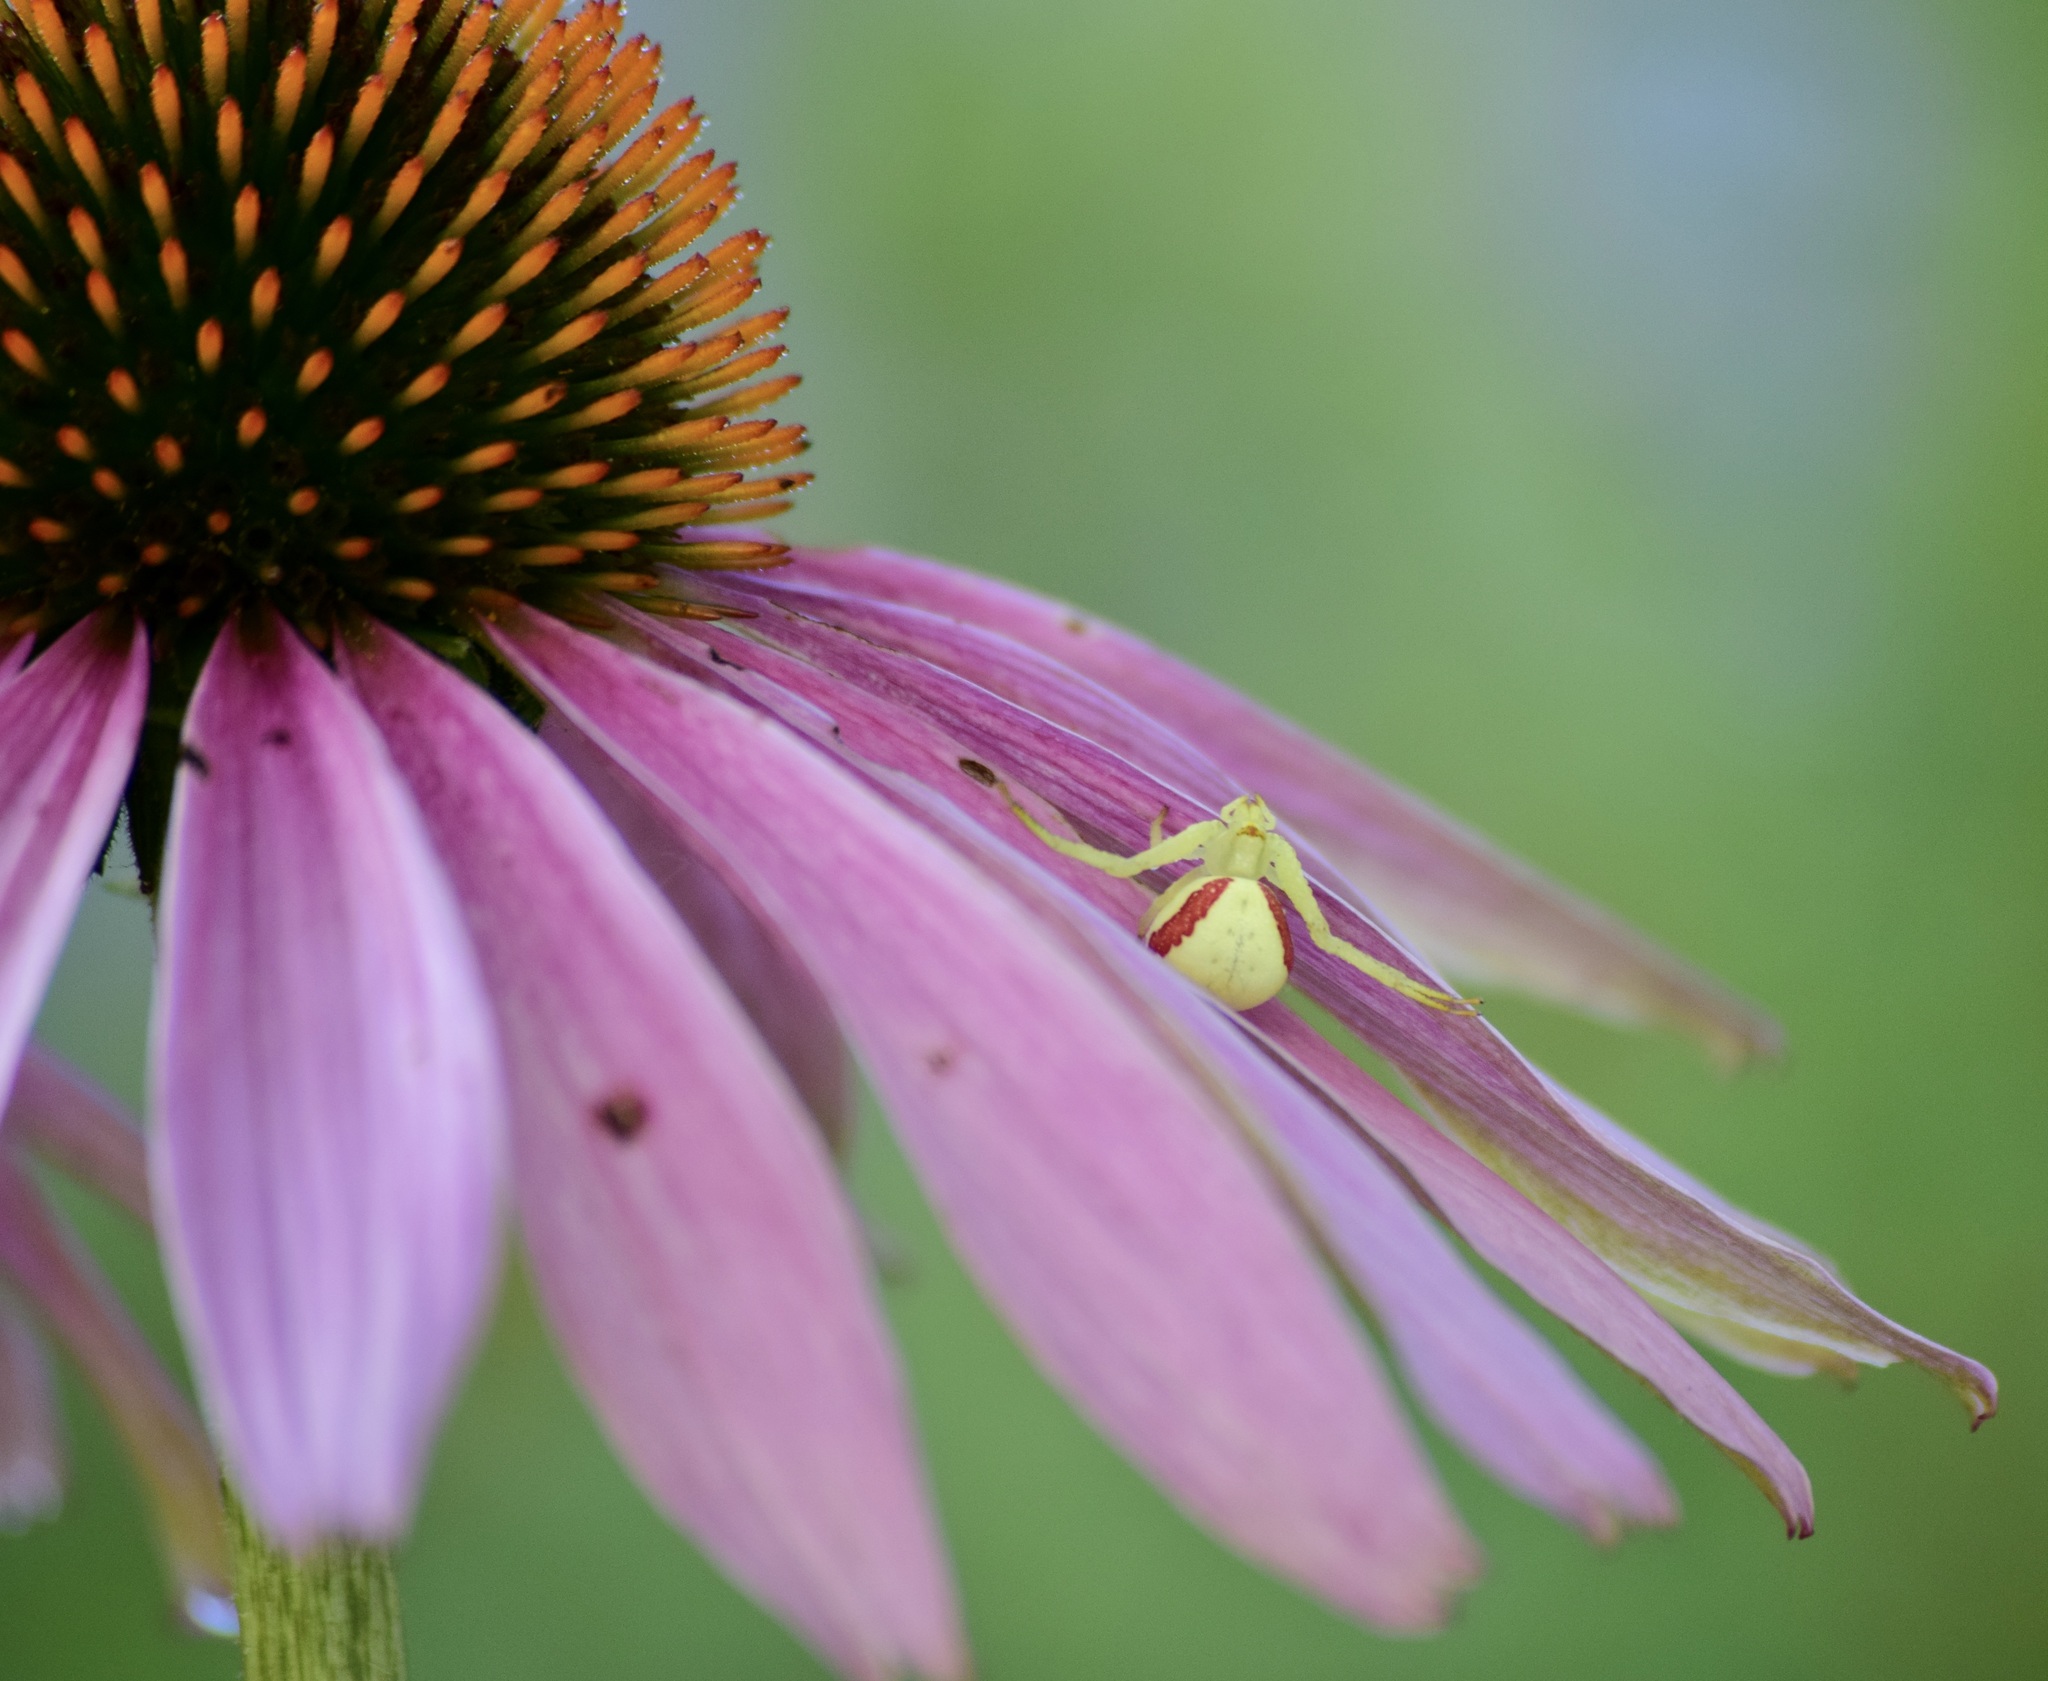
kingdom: Animalia
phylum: Arthropoda
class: Arachnida
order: Araneae
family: Thomisidae
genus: Misumena
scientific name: Misumena vatia
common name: Goldenrod crab spider
